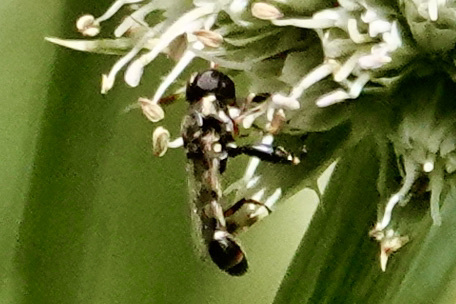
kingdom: Animalia
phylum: Arthropoda
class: Insecta
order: Diptera
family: Syrphidae
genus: Syritta
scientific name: Syritta pipiens
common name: Hover fly
